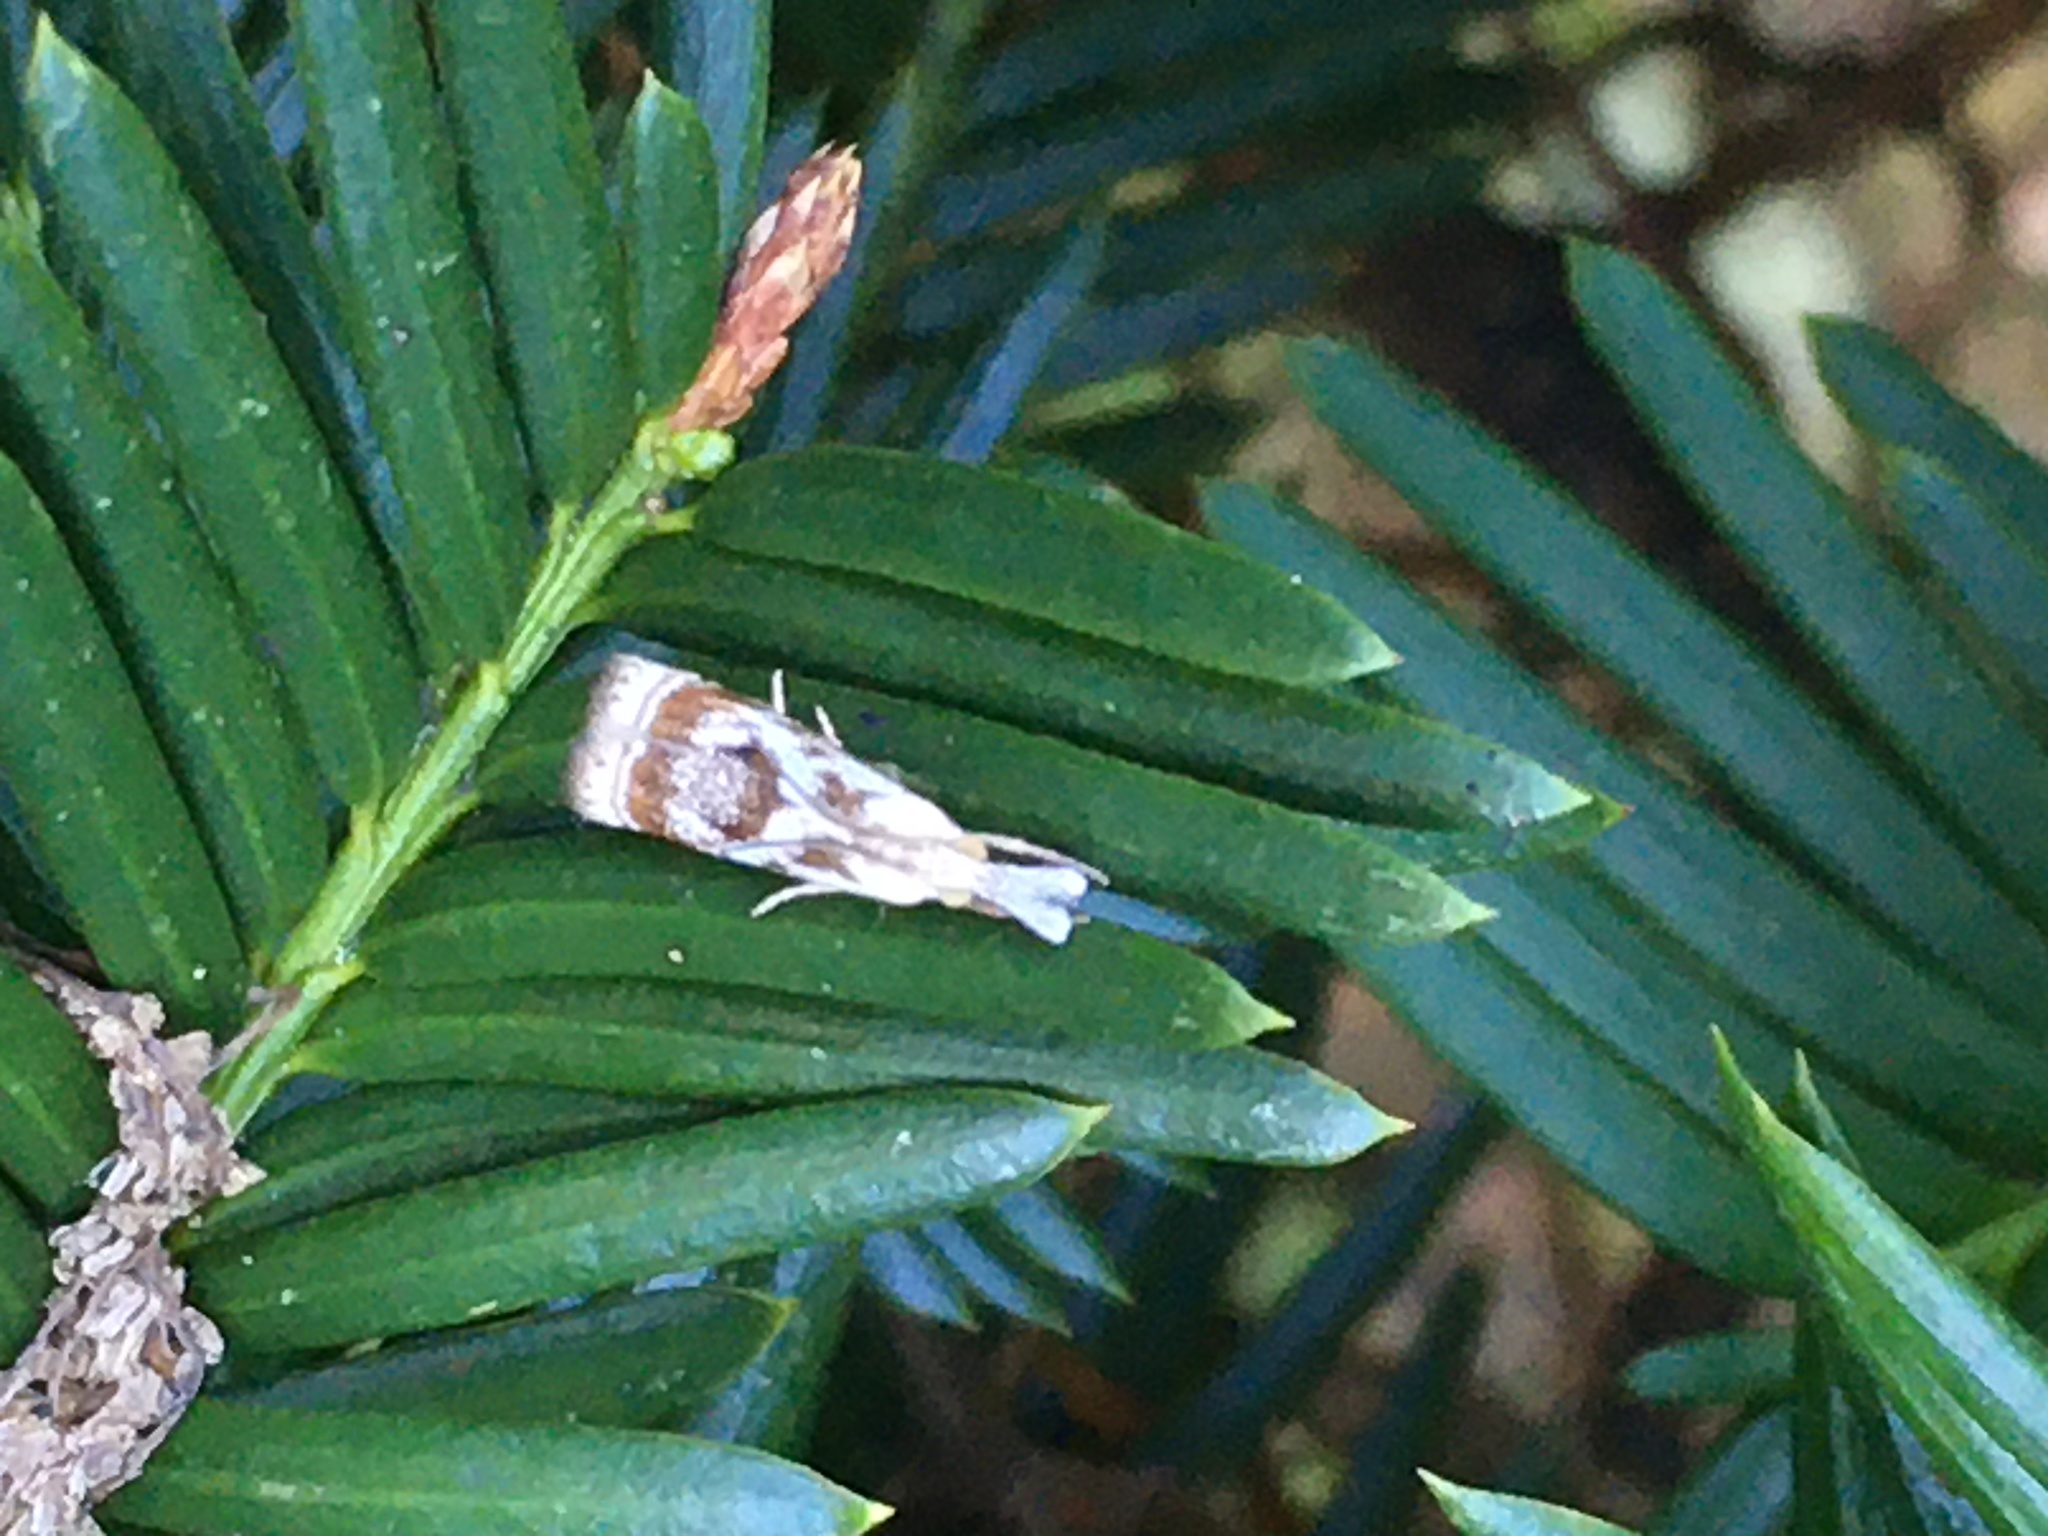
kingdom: Animalia
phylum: Arthropoda
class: Insecta
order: Lepidoptera
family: Crambidae
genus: Microcrambus
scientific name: Microcrambus elegans
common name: Elegant grass-veneer
